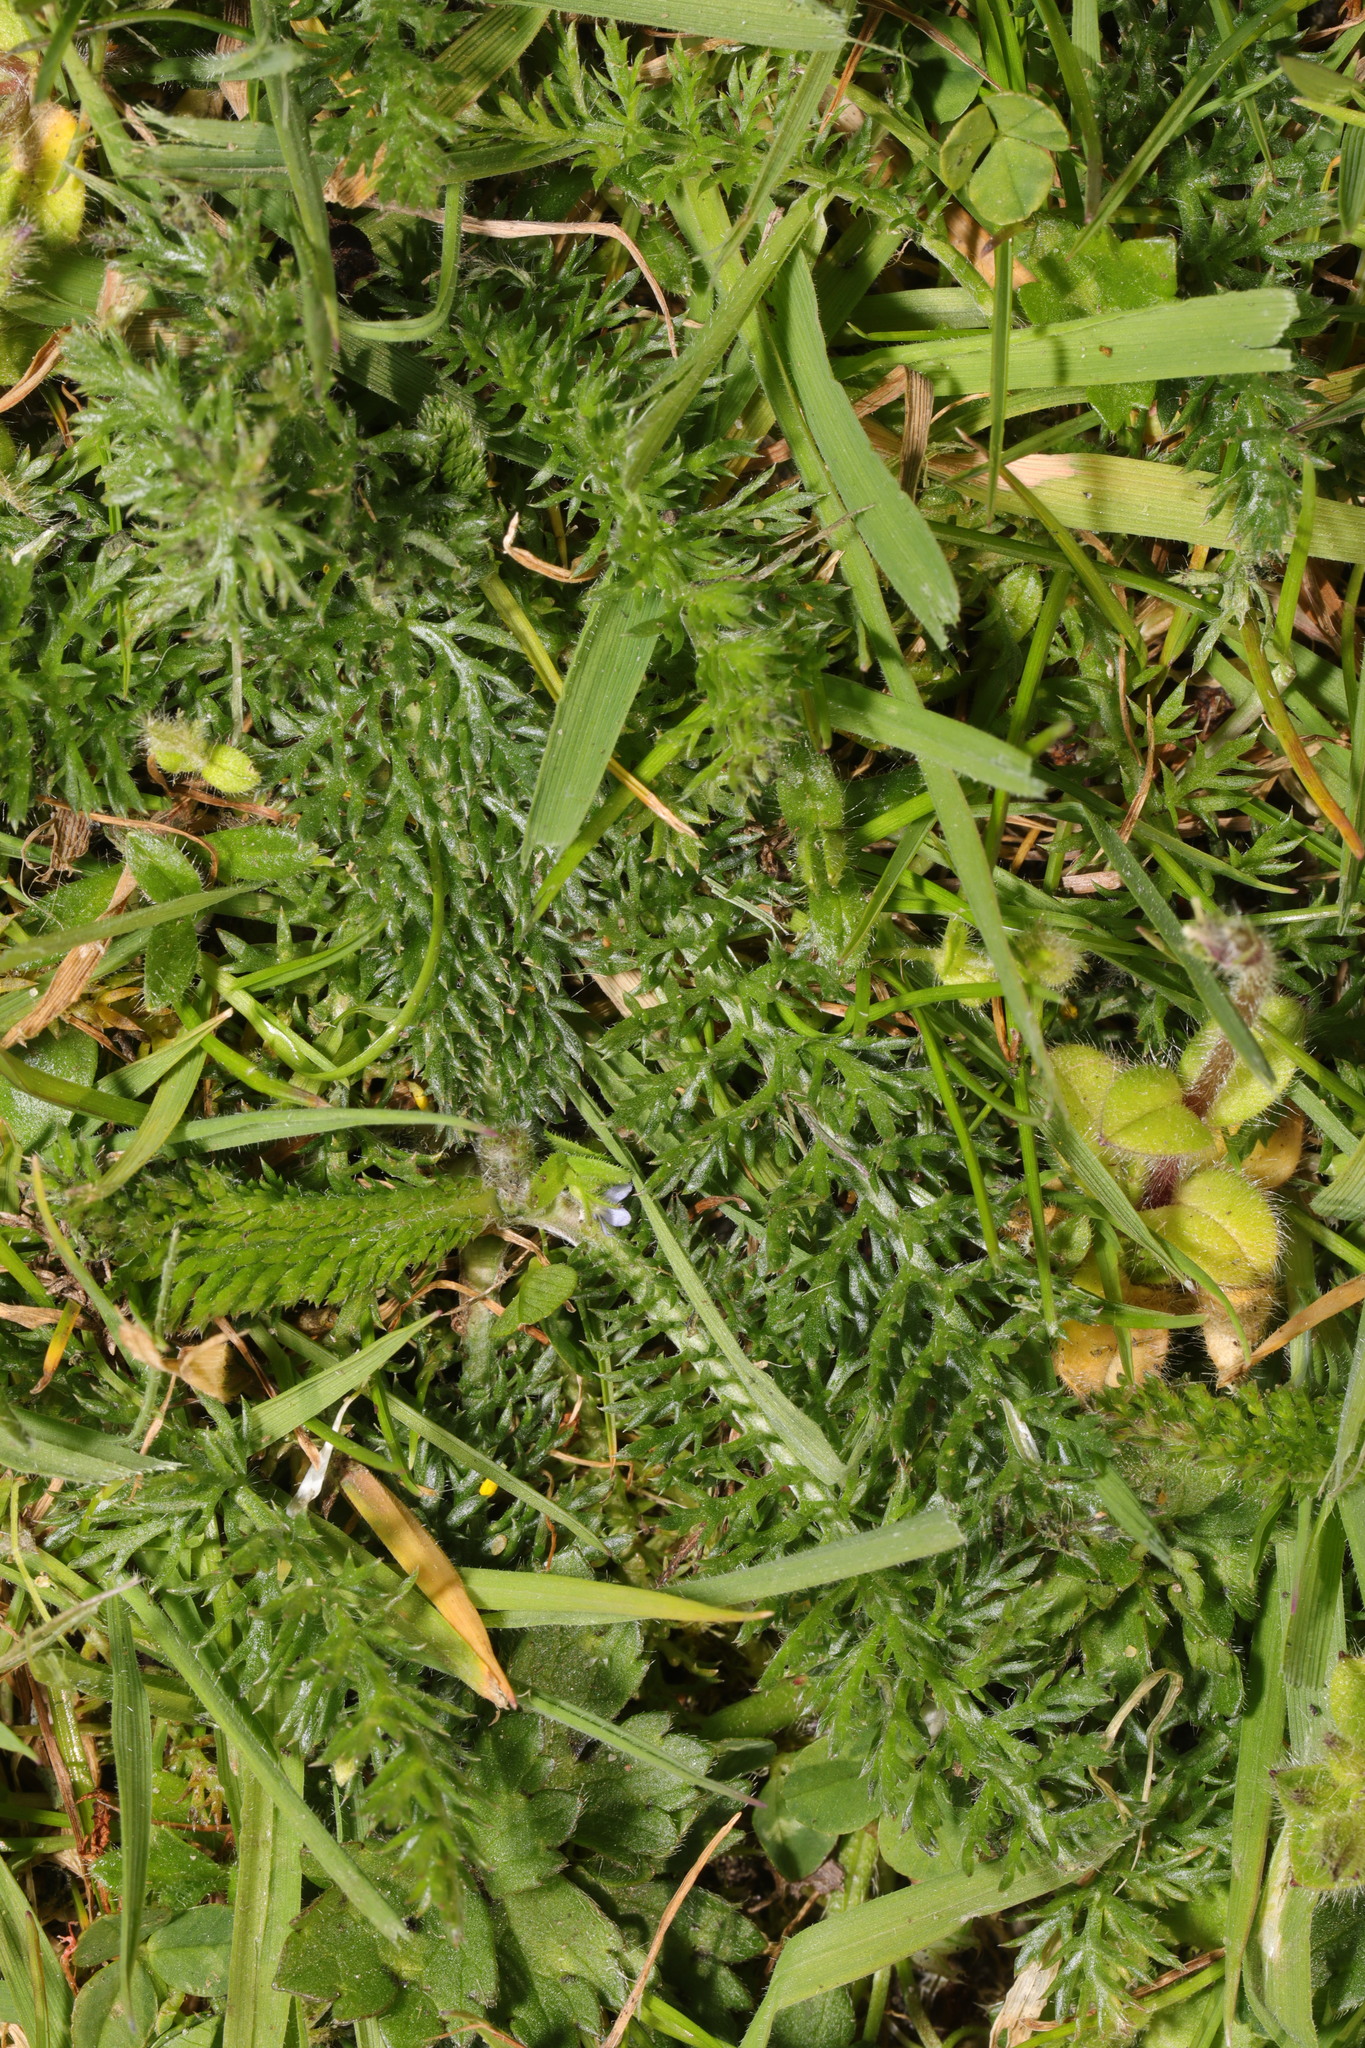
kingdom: Plantae
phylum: Tracheophyta
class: Magnoliopsida
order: Asterales
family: Asteraceae
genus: Achillea
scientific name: Achillea millefolium
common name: Yarrow
